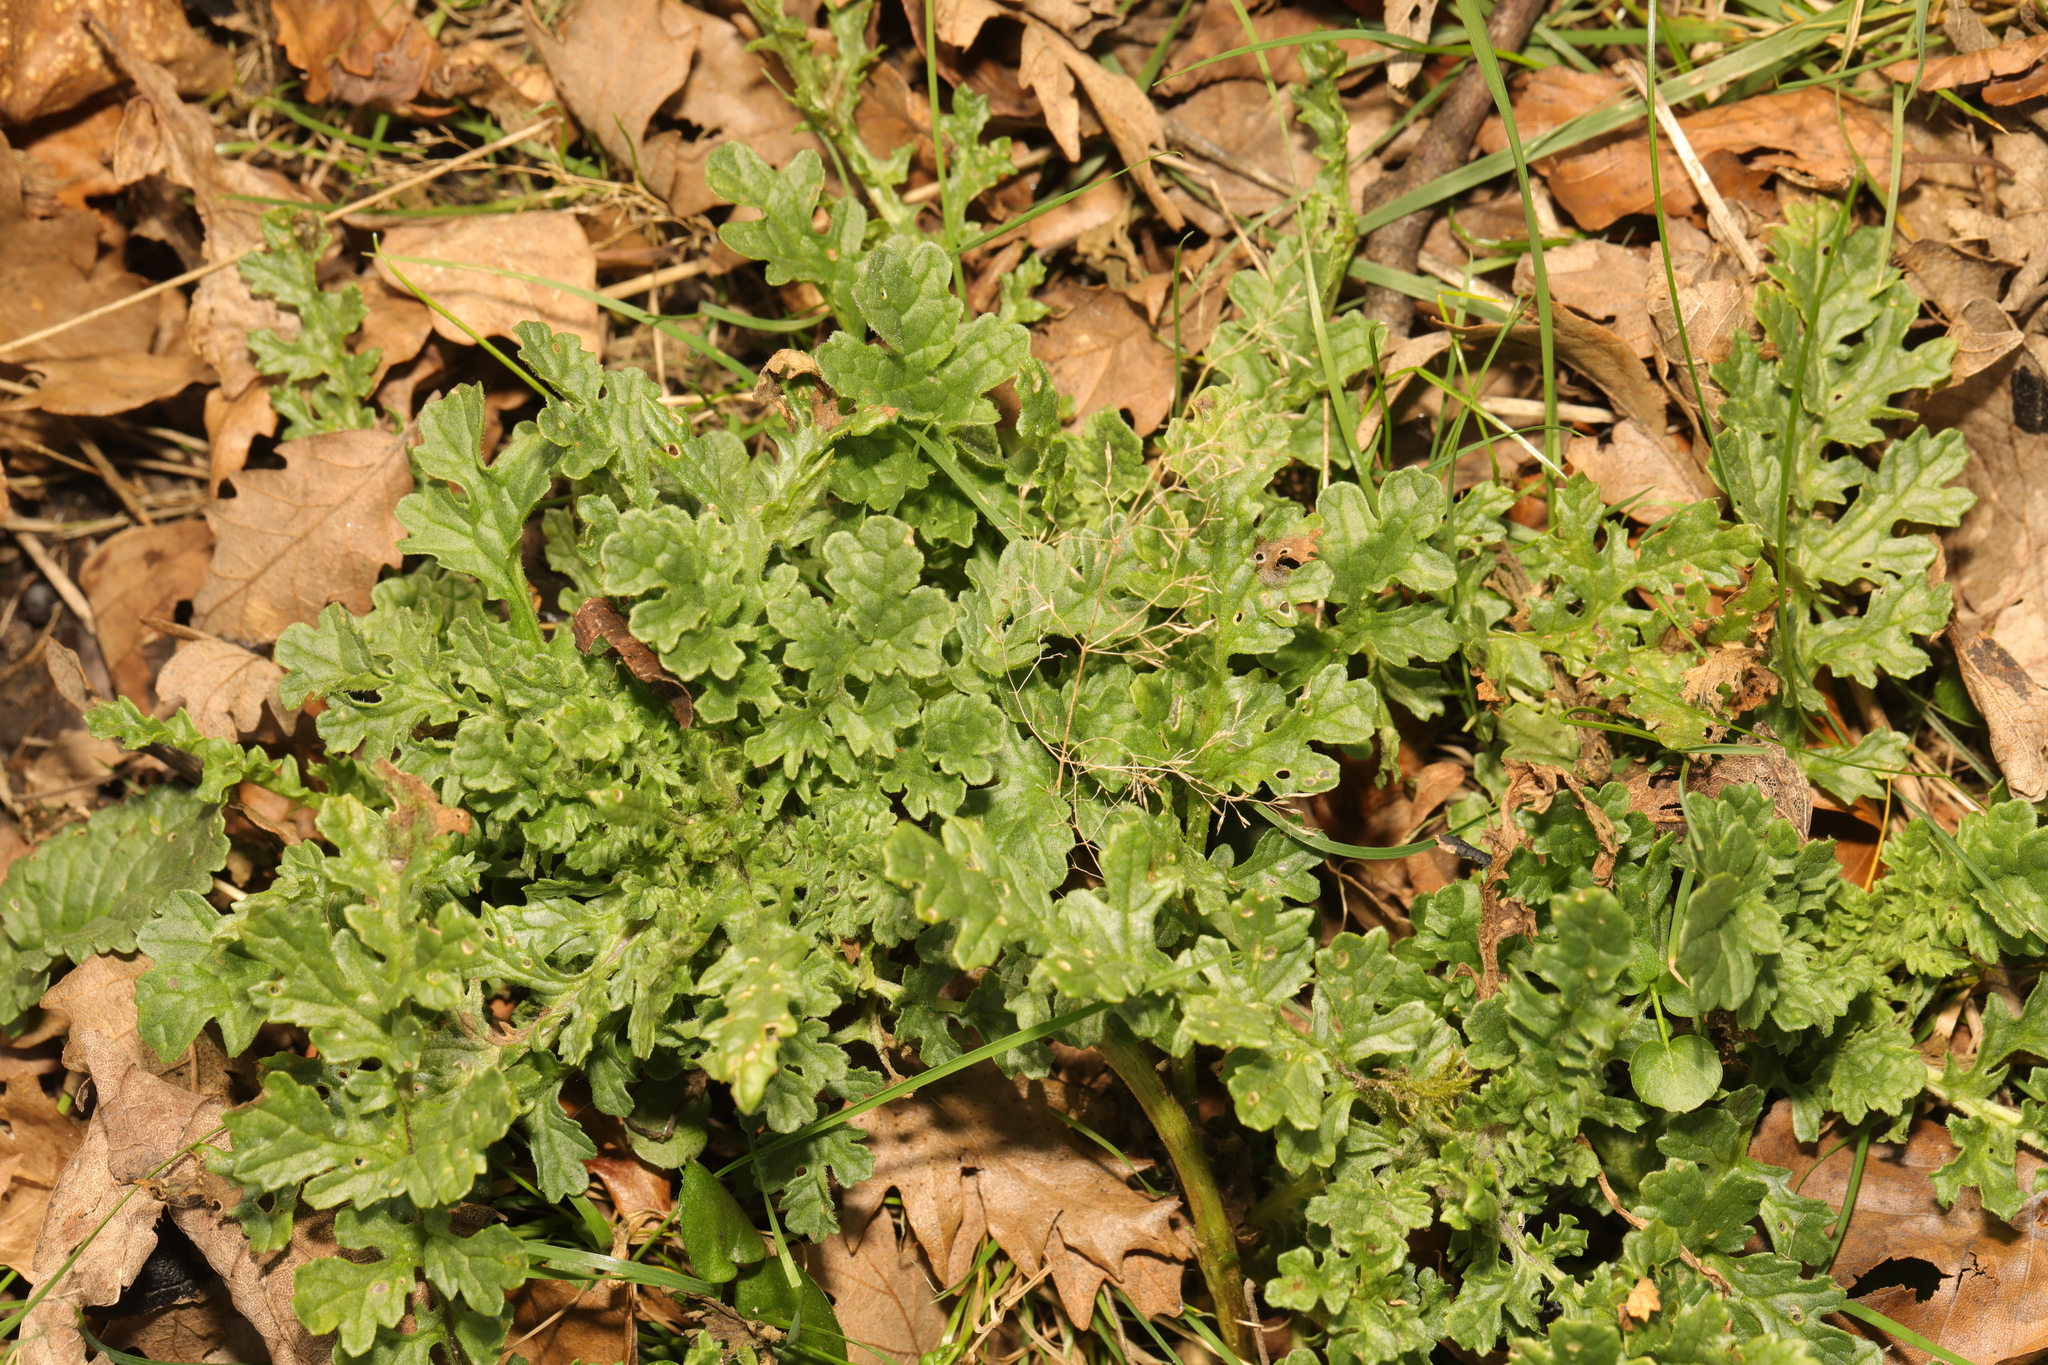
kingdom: Plantae
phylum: Tracheophyta
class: Magnoliopsida
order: Asterales
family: Asteraceae
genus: Jacobaea
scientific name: Jacobaea vulgaris
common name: Stinking willie
